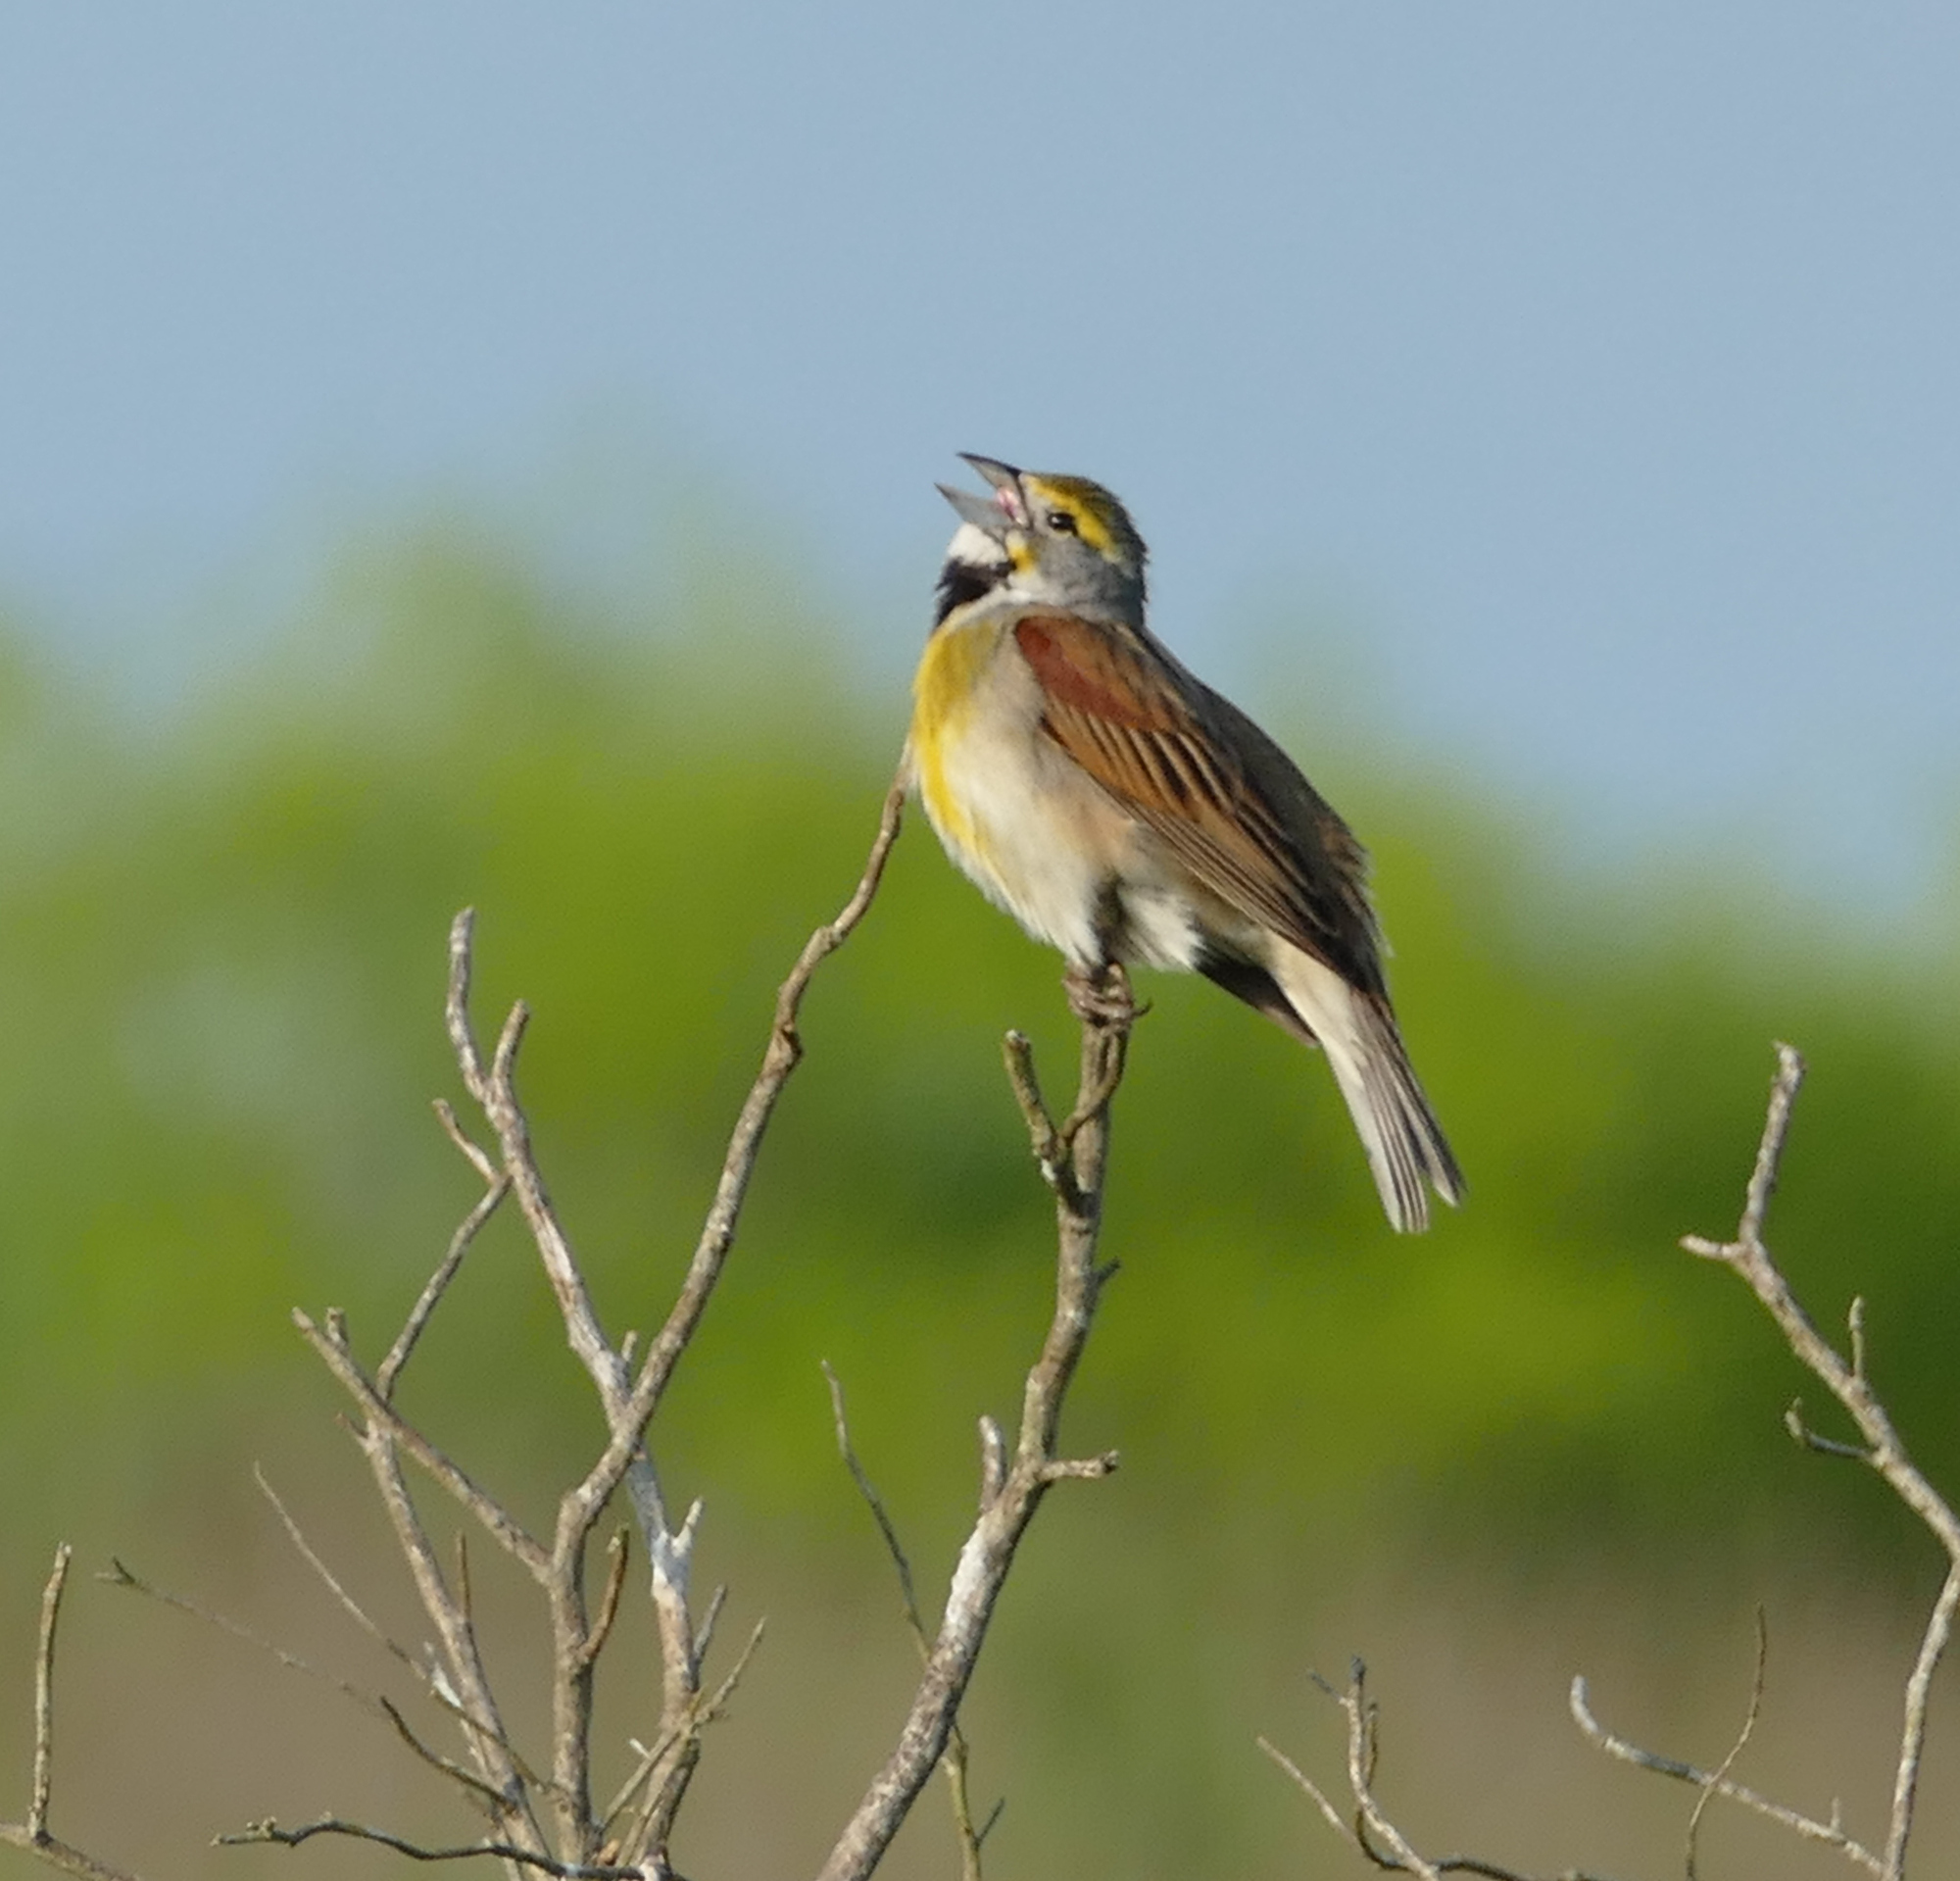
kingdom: Animalia
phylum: Chordata
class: Aves
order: Passeriformes
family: Cardinalidae
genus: Spiza
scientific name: Spiza americana
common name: Dickcissel
